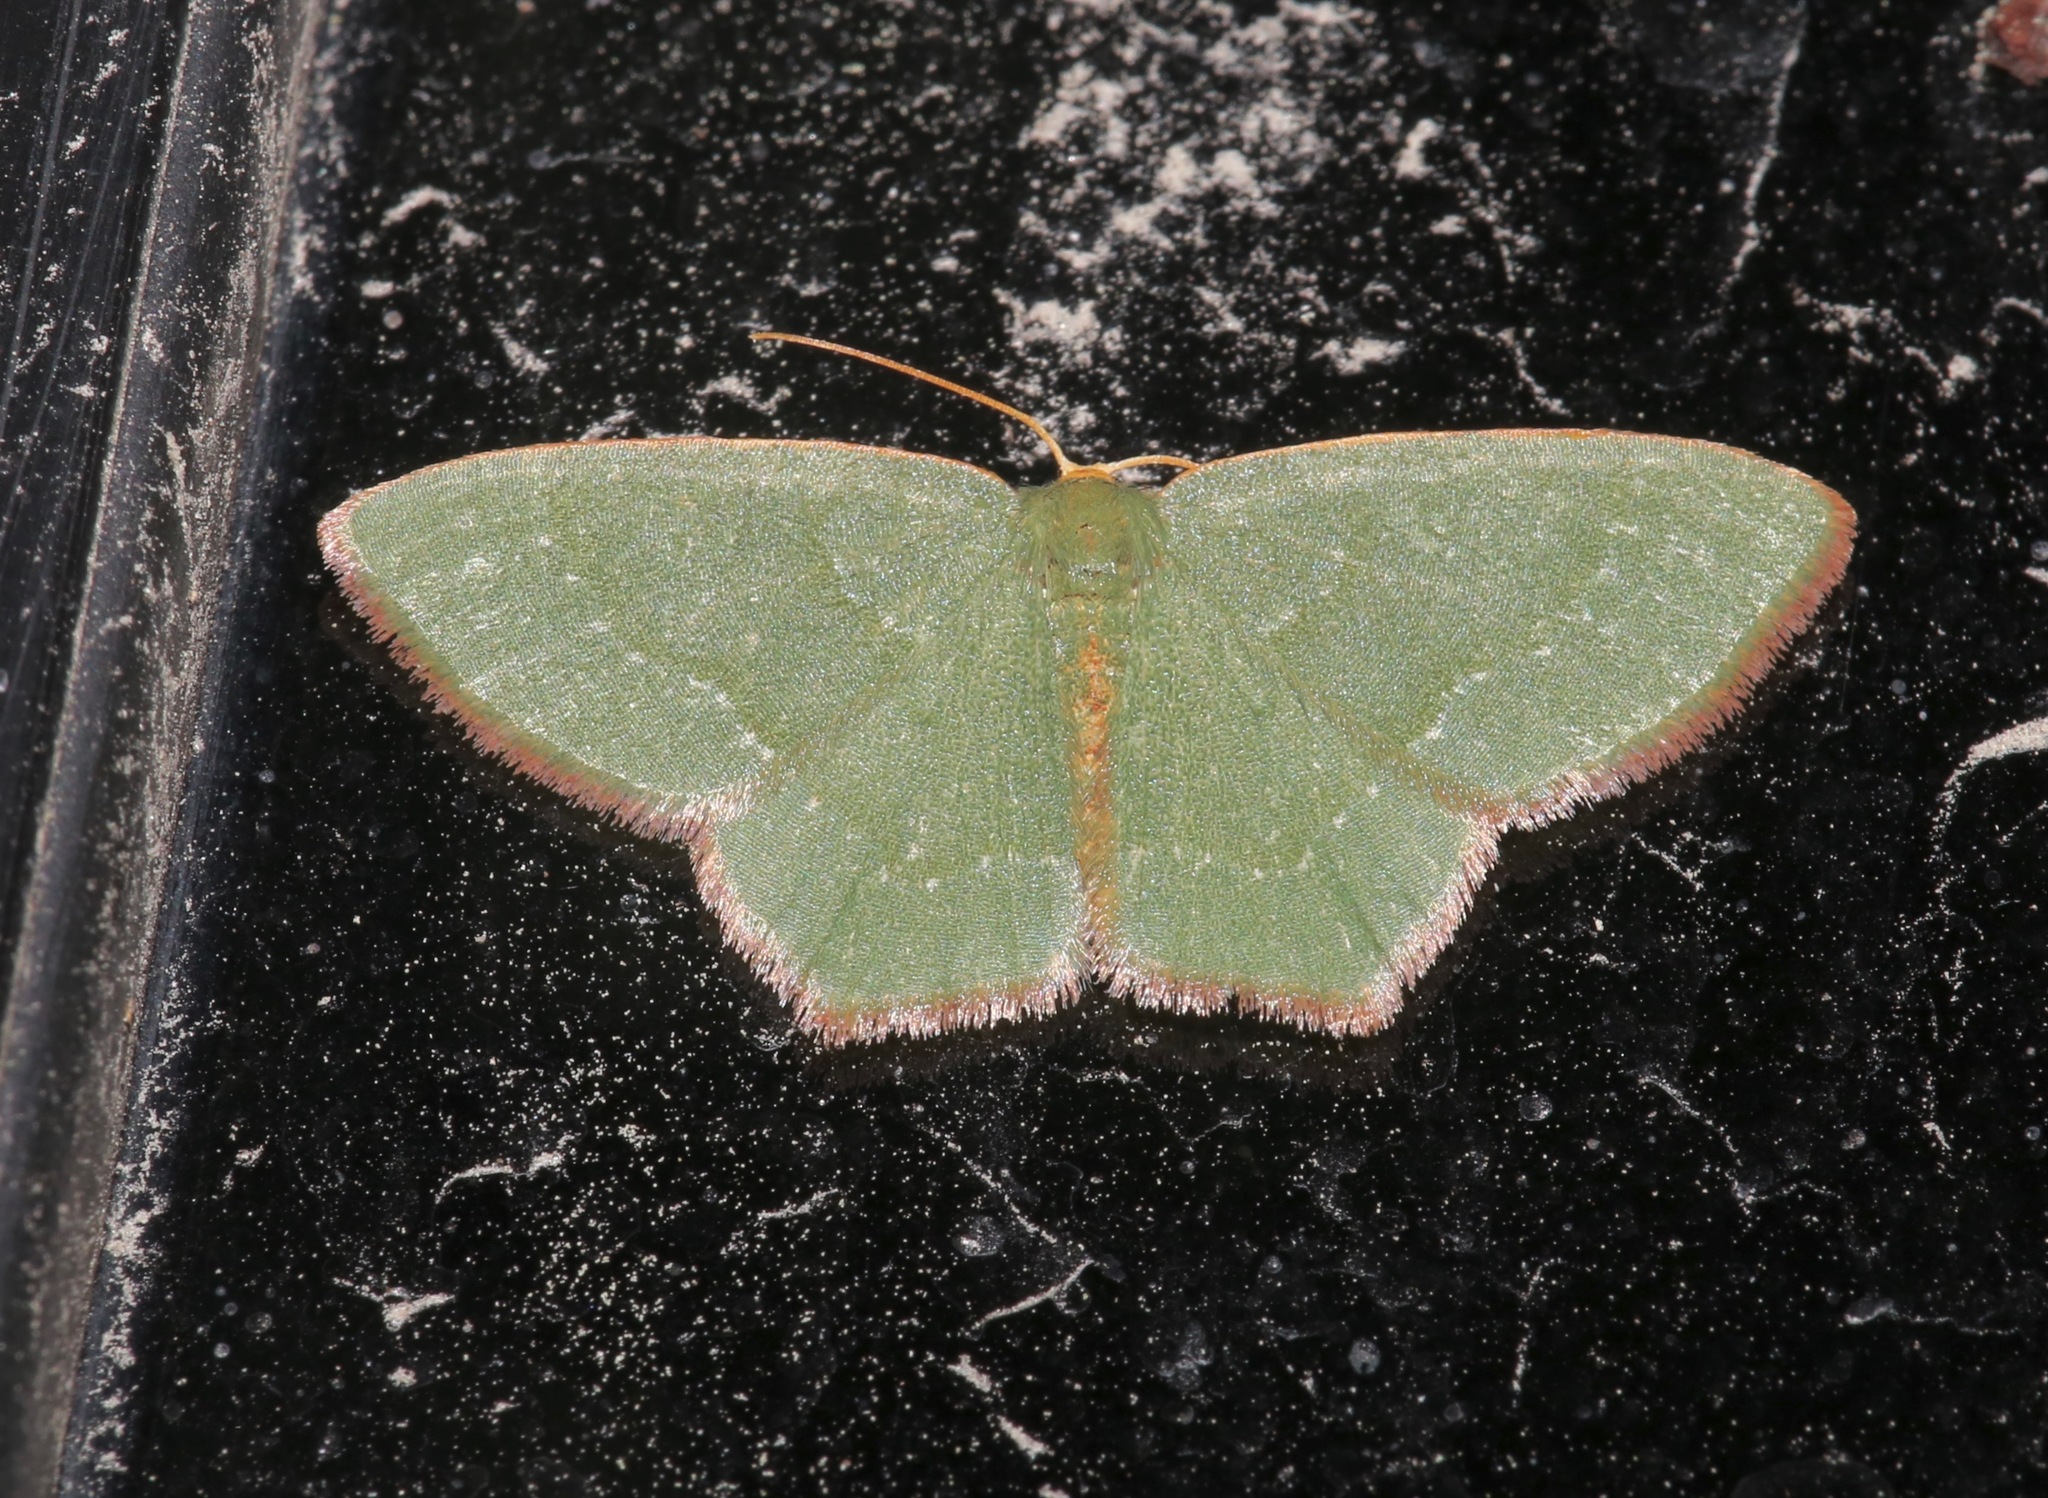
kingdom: Animalia
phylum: Arthropoda
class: Insecta
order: Lepidoptera
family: Geometridae
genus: Thalera
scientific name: Thalera pistasciaria
